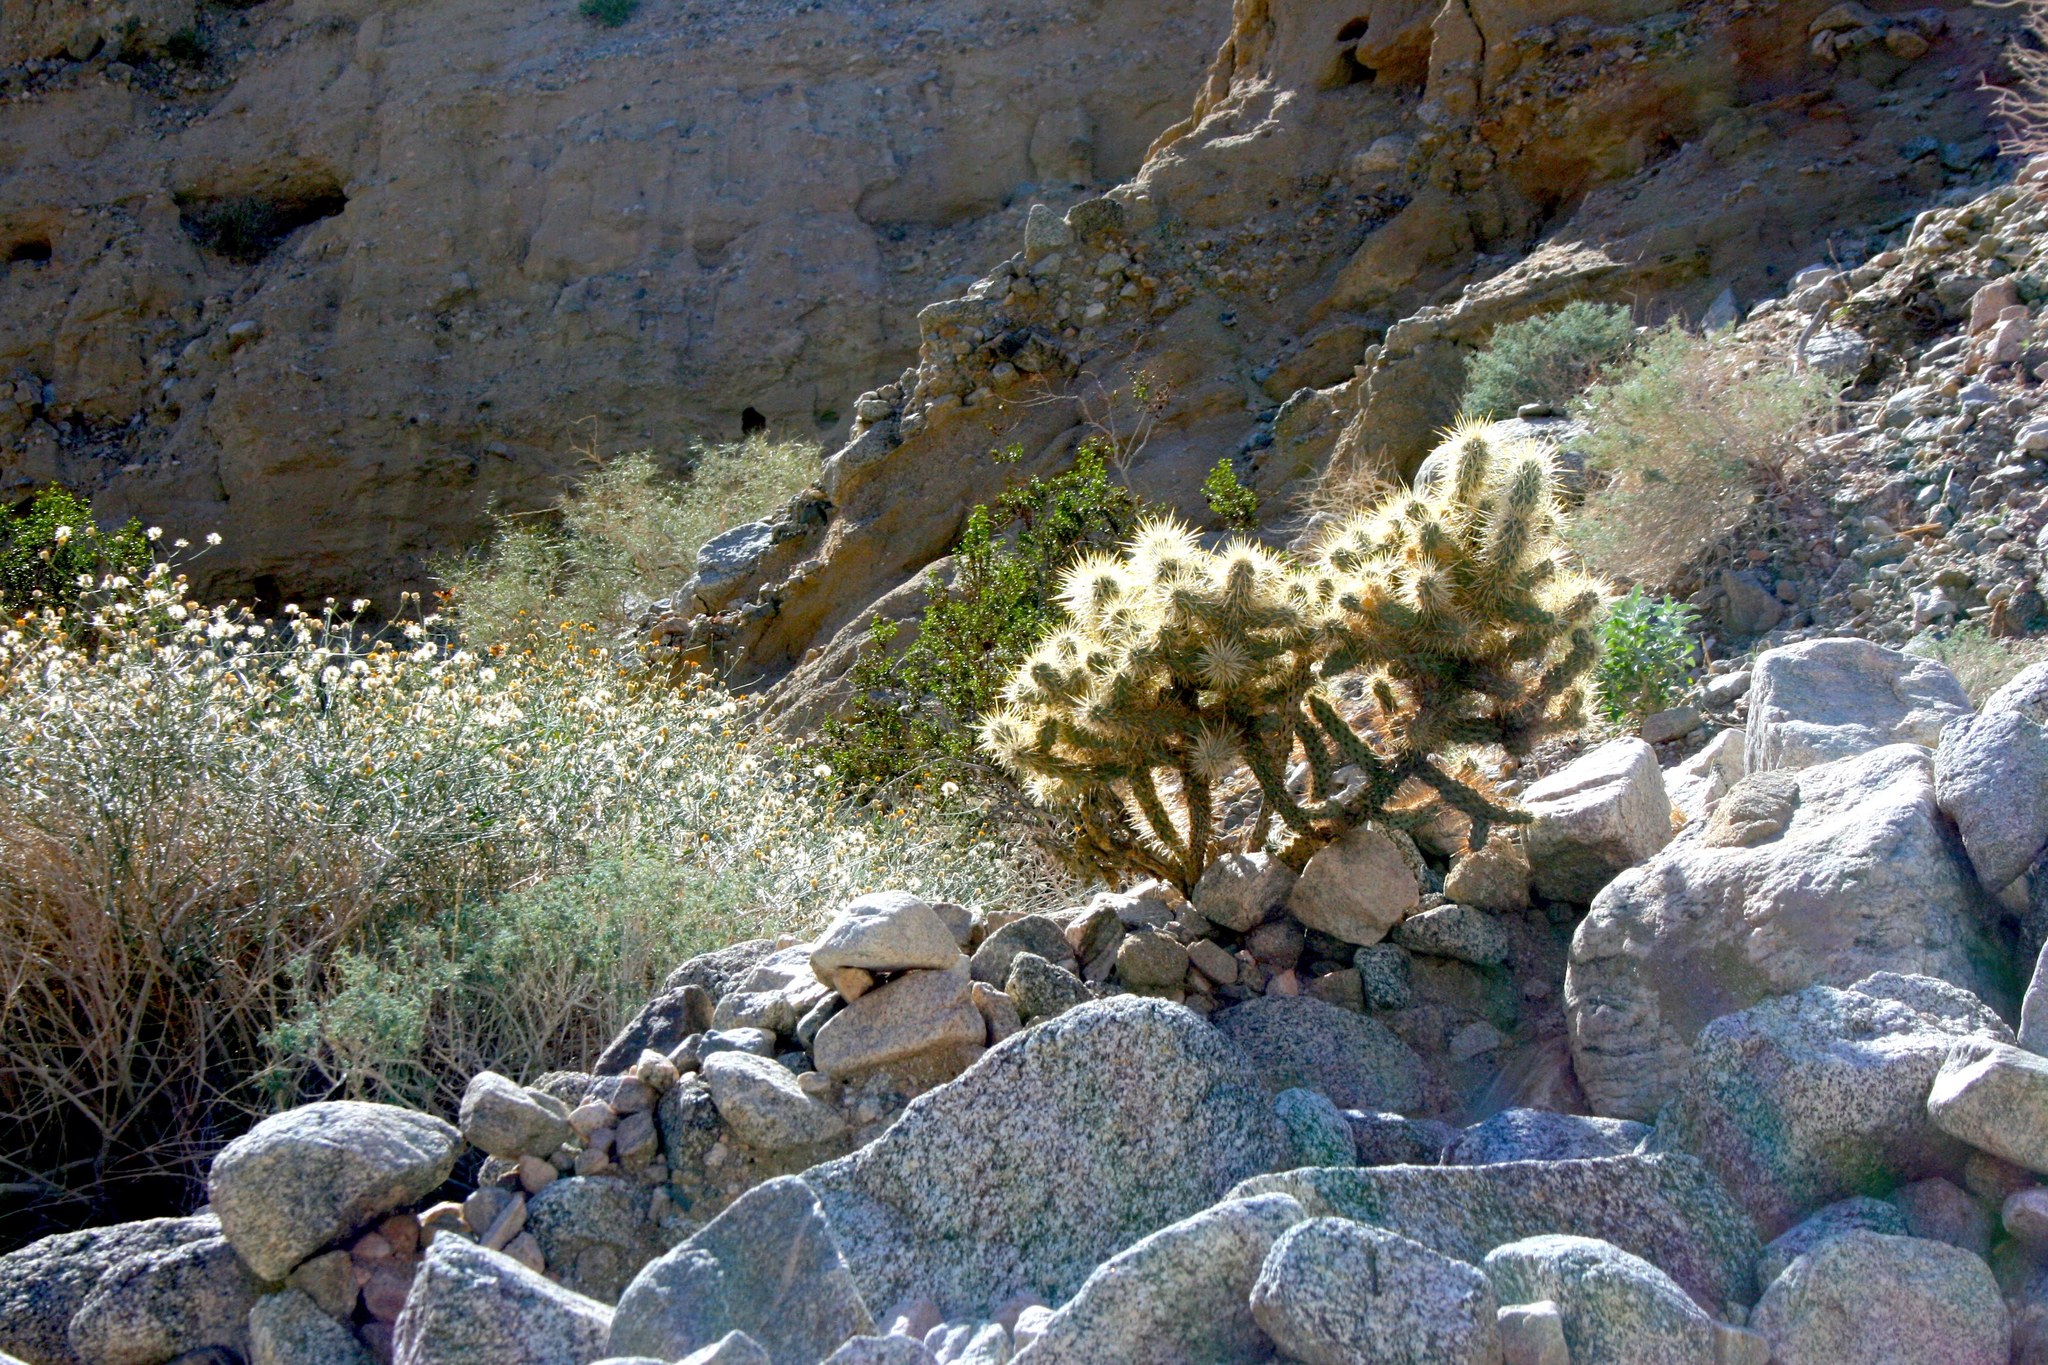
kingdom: Plantae
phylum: Tracheophyta
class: Magnoliopsida
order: Caryophyllales
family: Cactaceae
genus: Cylindropuntia
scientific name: Cylindropuntia echinocarpa
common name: Ground cholla
